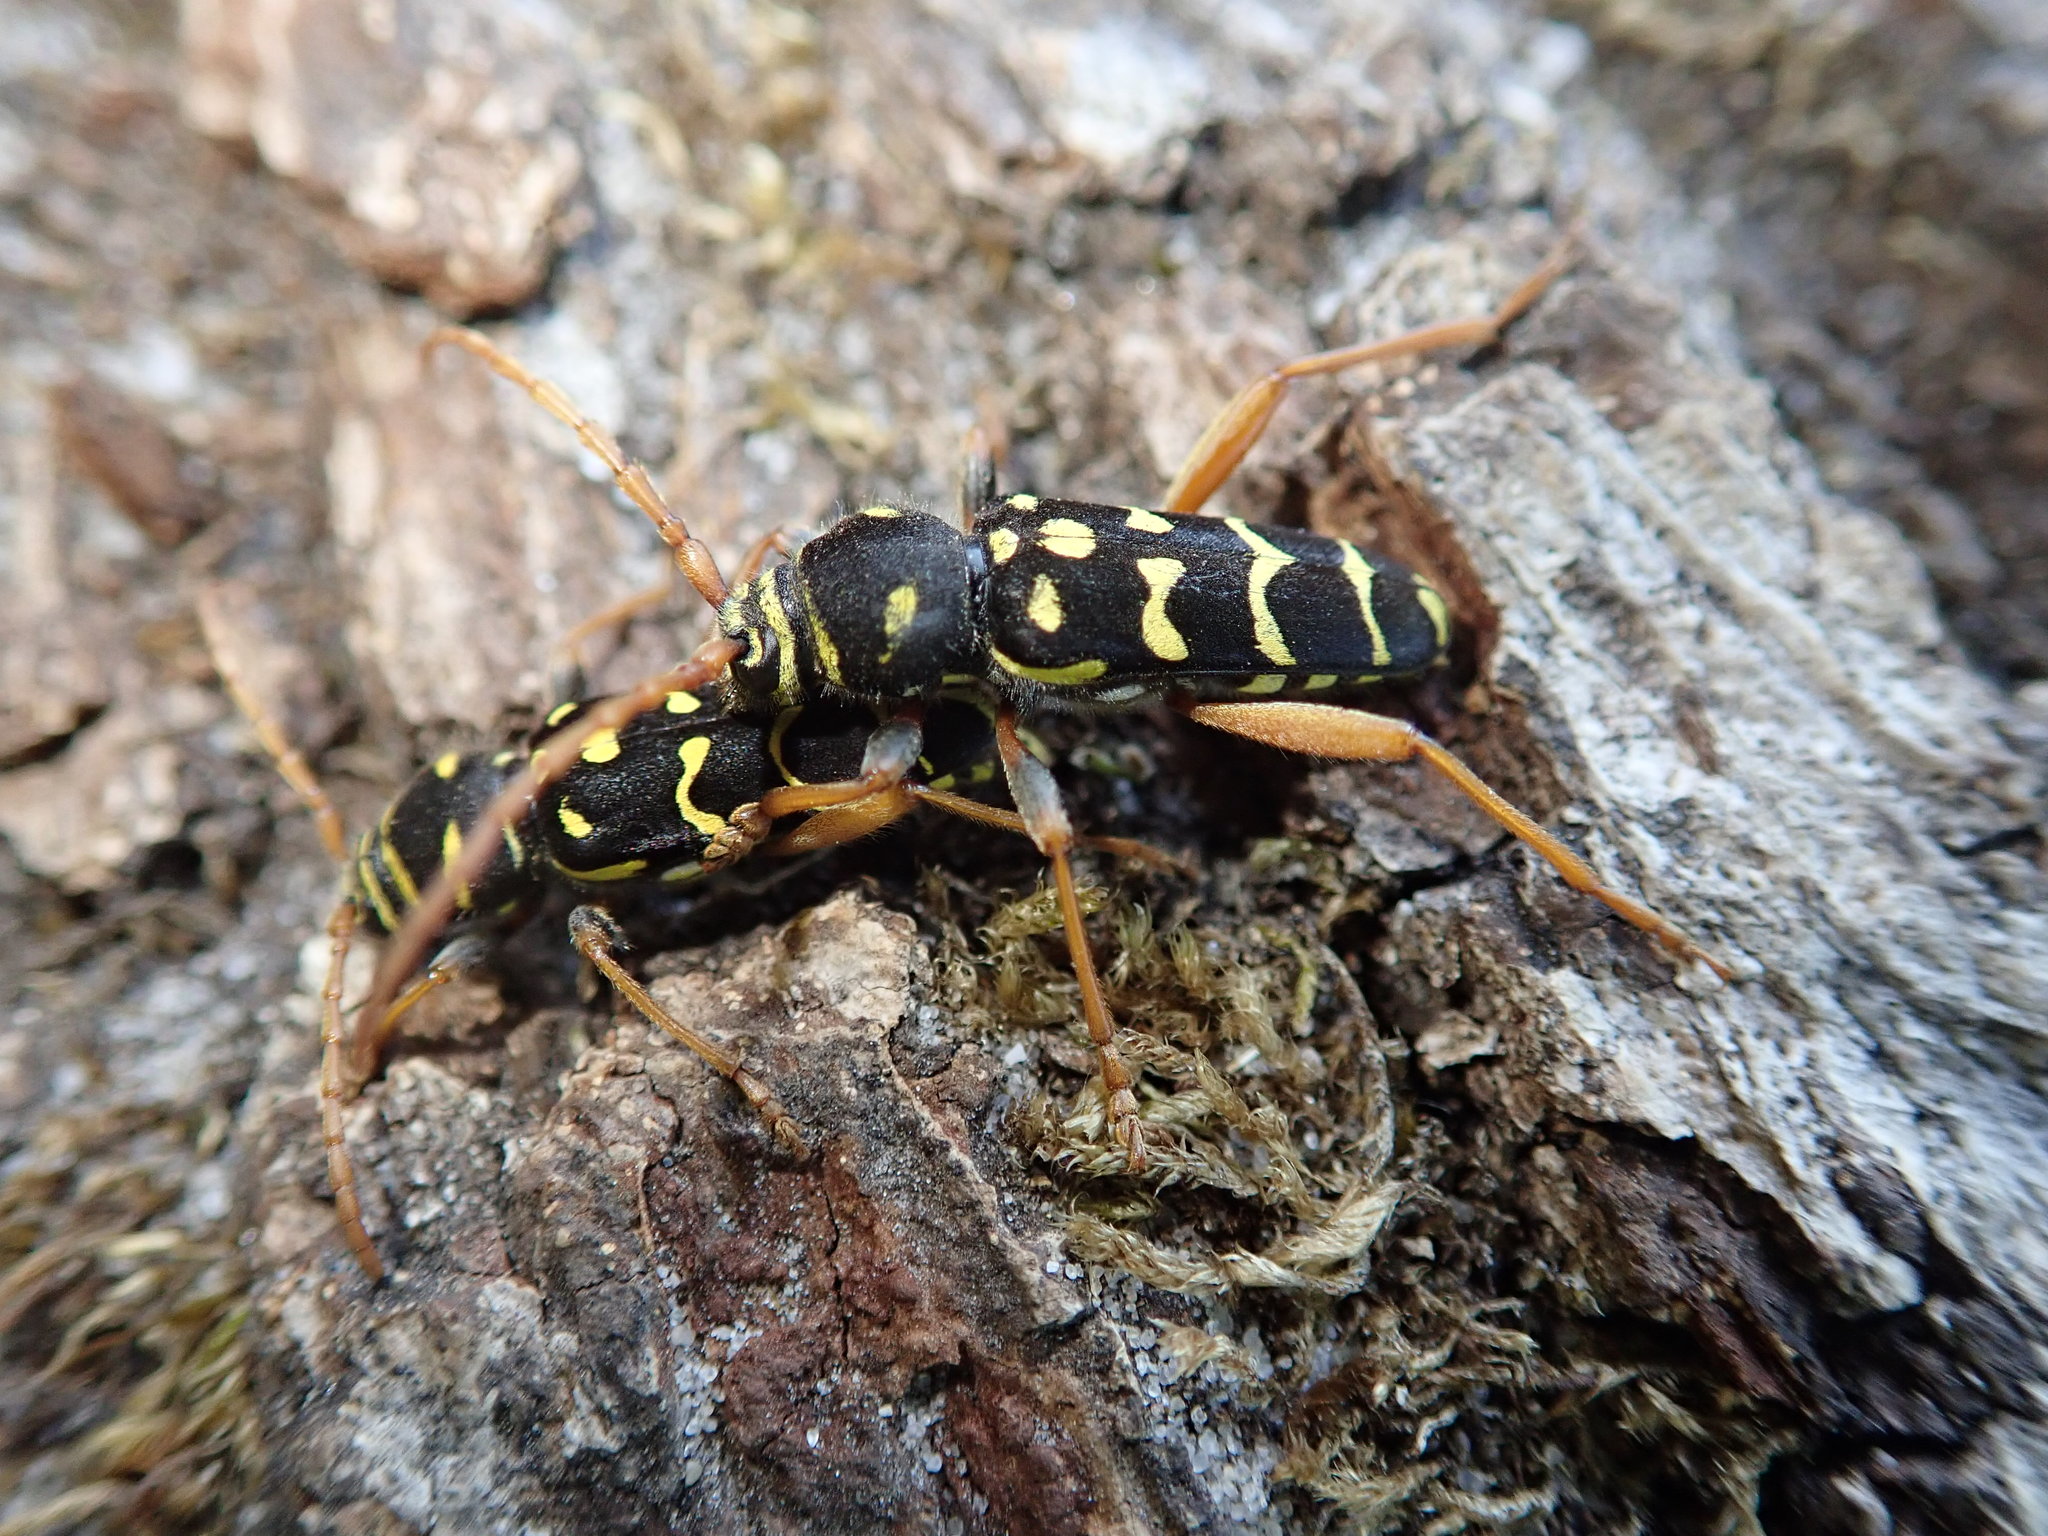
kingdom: Animalia
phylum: Arthropoda
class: Insecta
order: Coleoptera
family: Cerambycidae
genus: Plagionotus
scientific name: Plagionotus arcuatus
